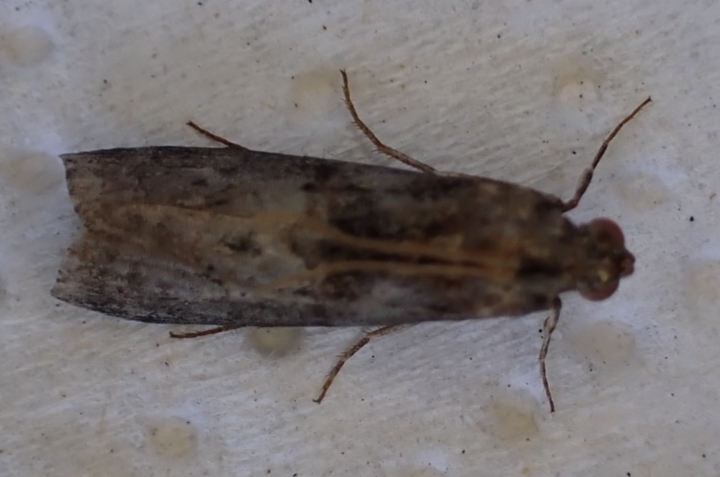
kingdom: Animalia
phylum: Arthropoda
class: Insecta
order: Lepidoptera
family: Pyralidae
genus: Phycita
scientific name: Phycita roborella
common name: Dotted oak knot-horn
